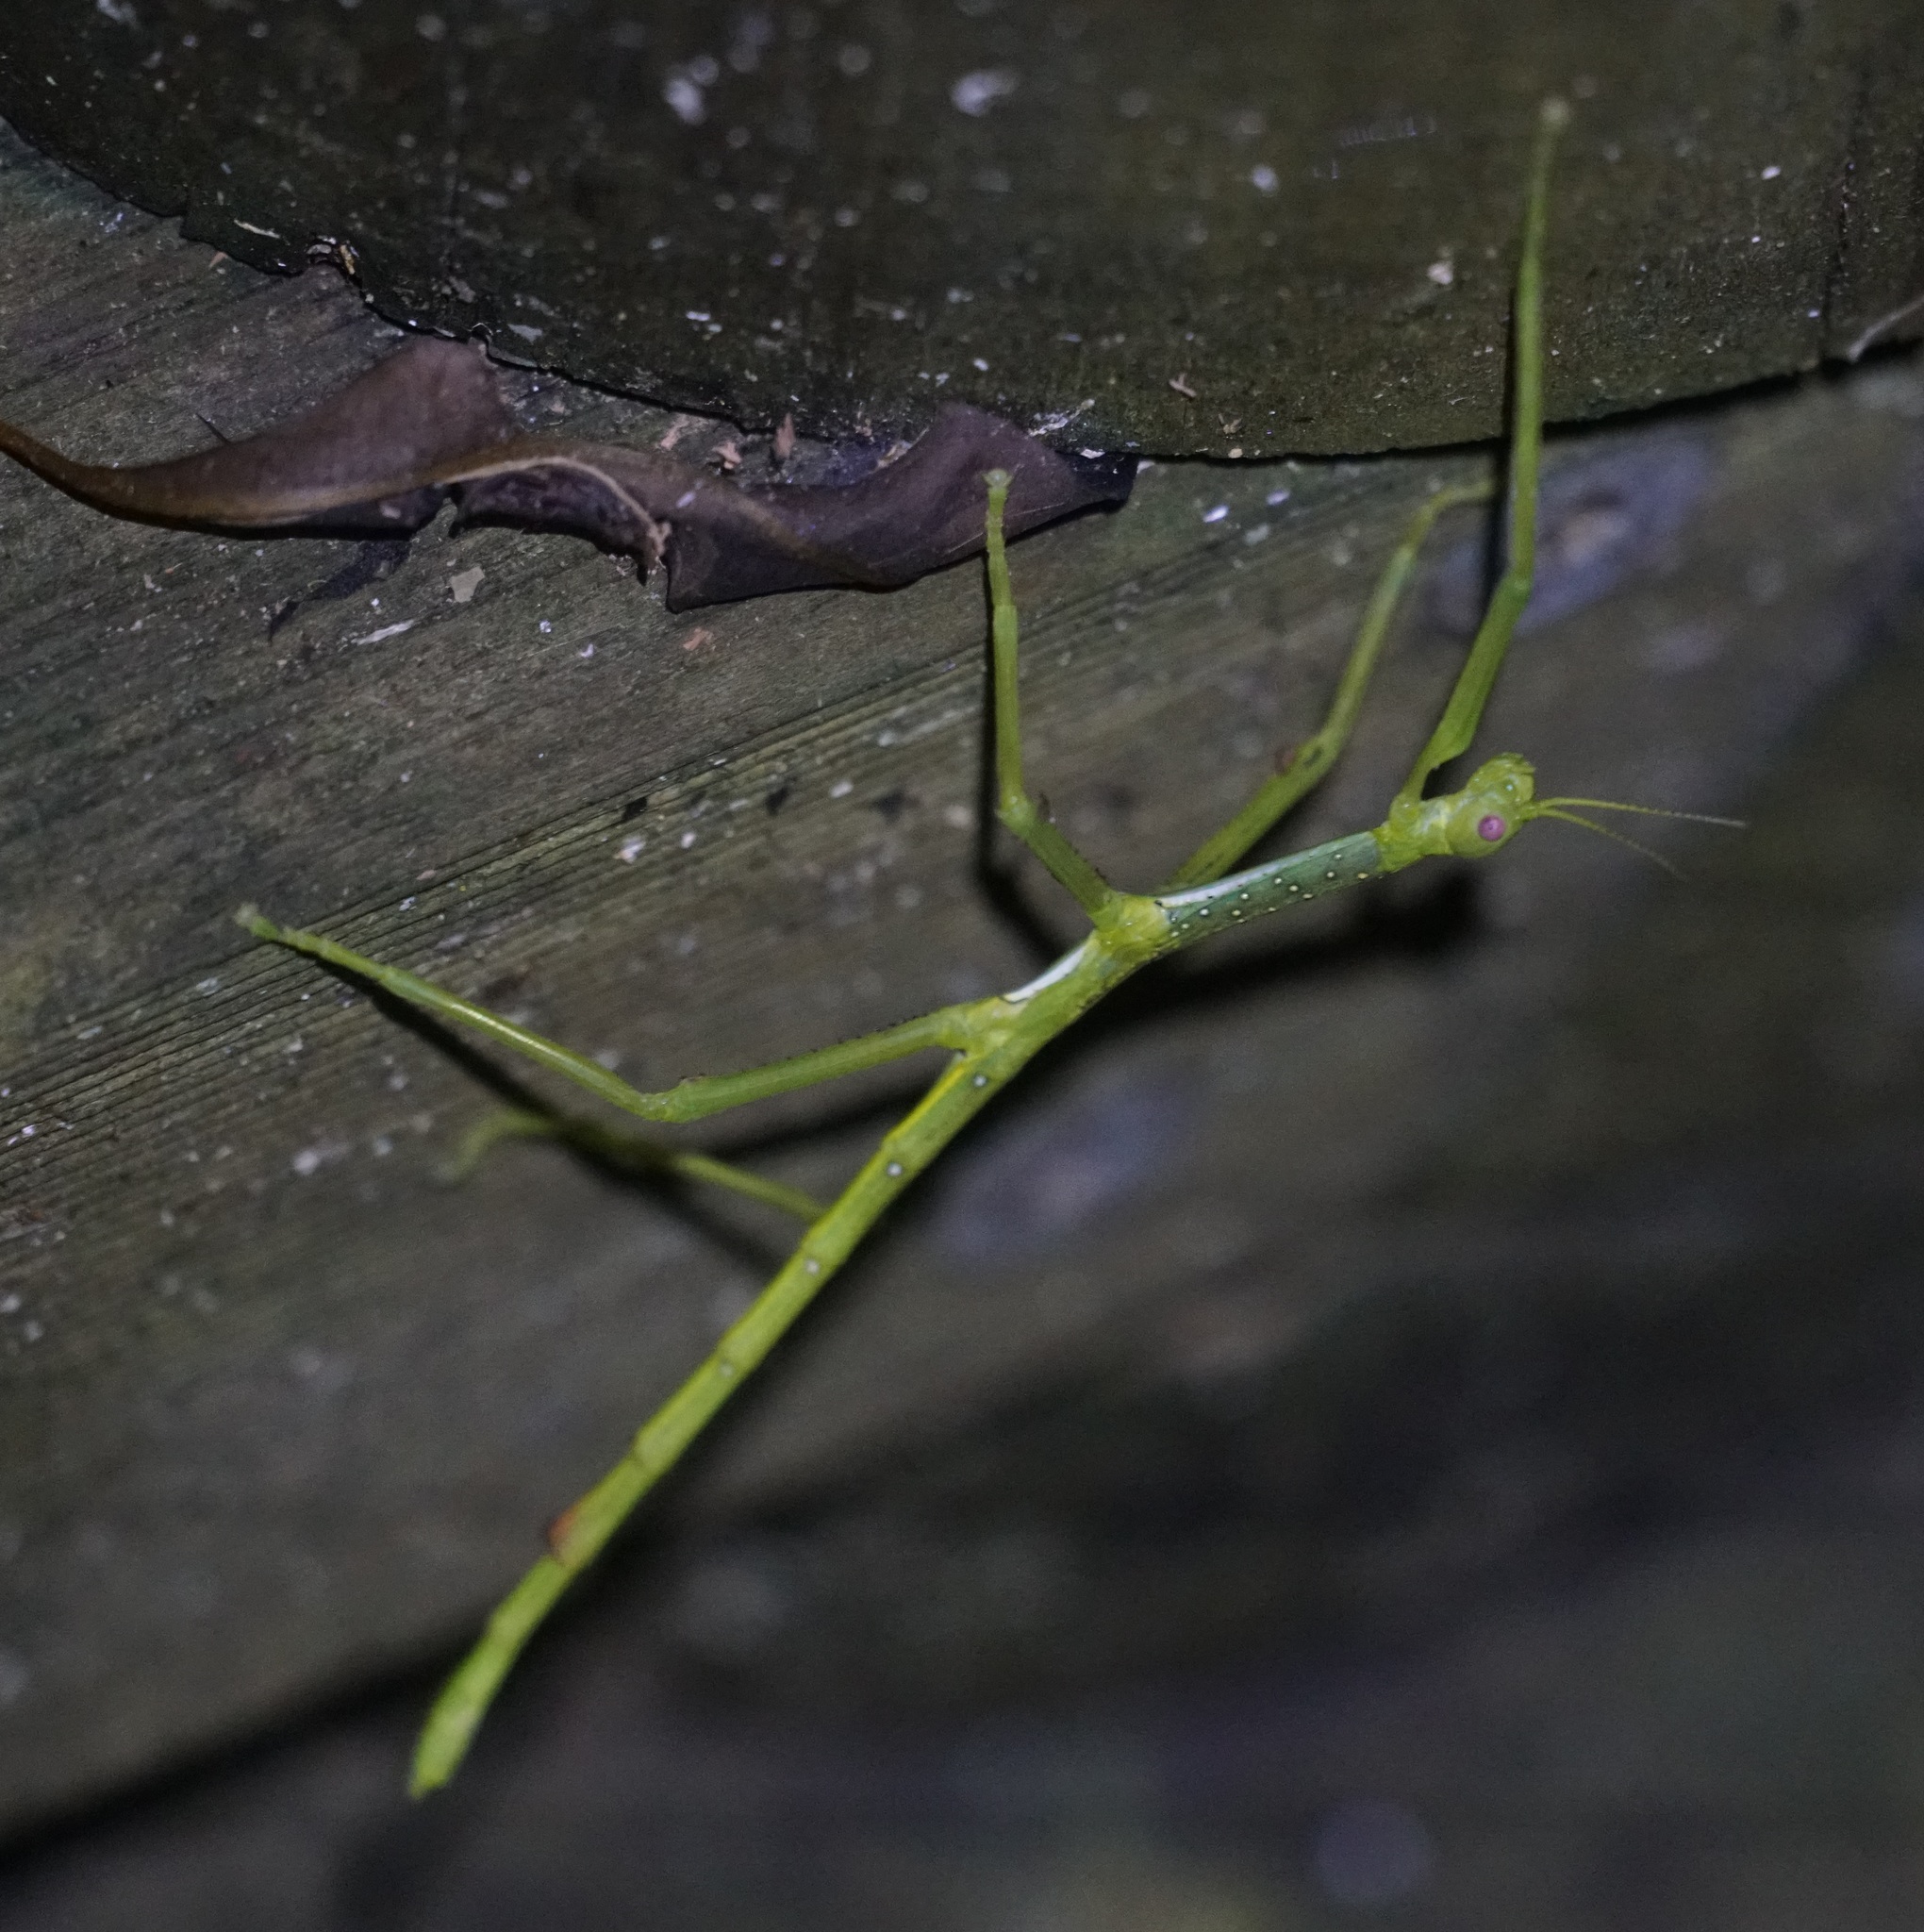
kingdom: Animalia
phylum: Arthropoda
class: Insecta
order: Phasmida
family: Phasmatidae
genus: Anchiale
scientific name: Anchiale briareus
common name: Strong stick insect
